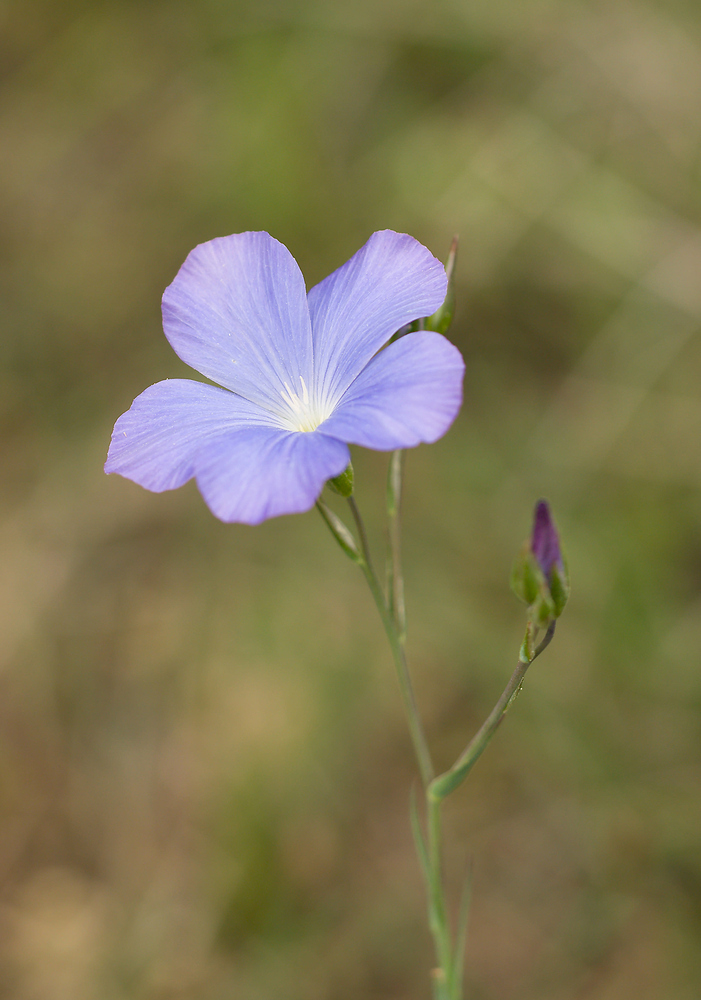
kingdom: Plantae
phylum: Tracheophyta
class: Magnoliopsida
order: Malpighiales
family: Linaceae
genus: Linum
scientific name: Linum narbonense
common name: Flax
